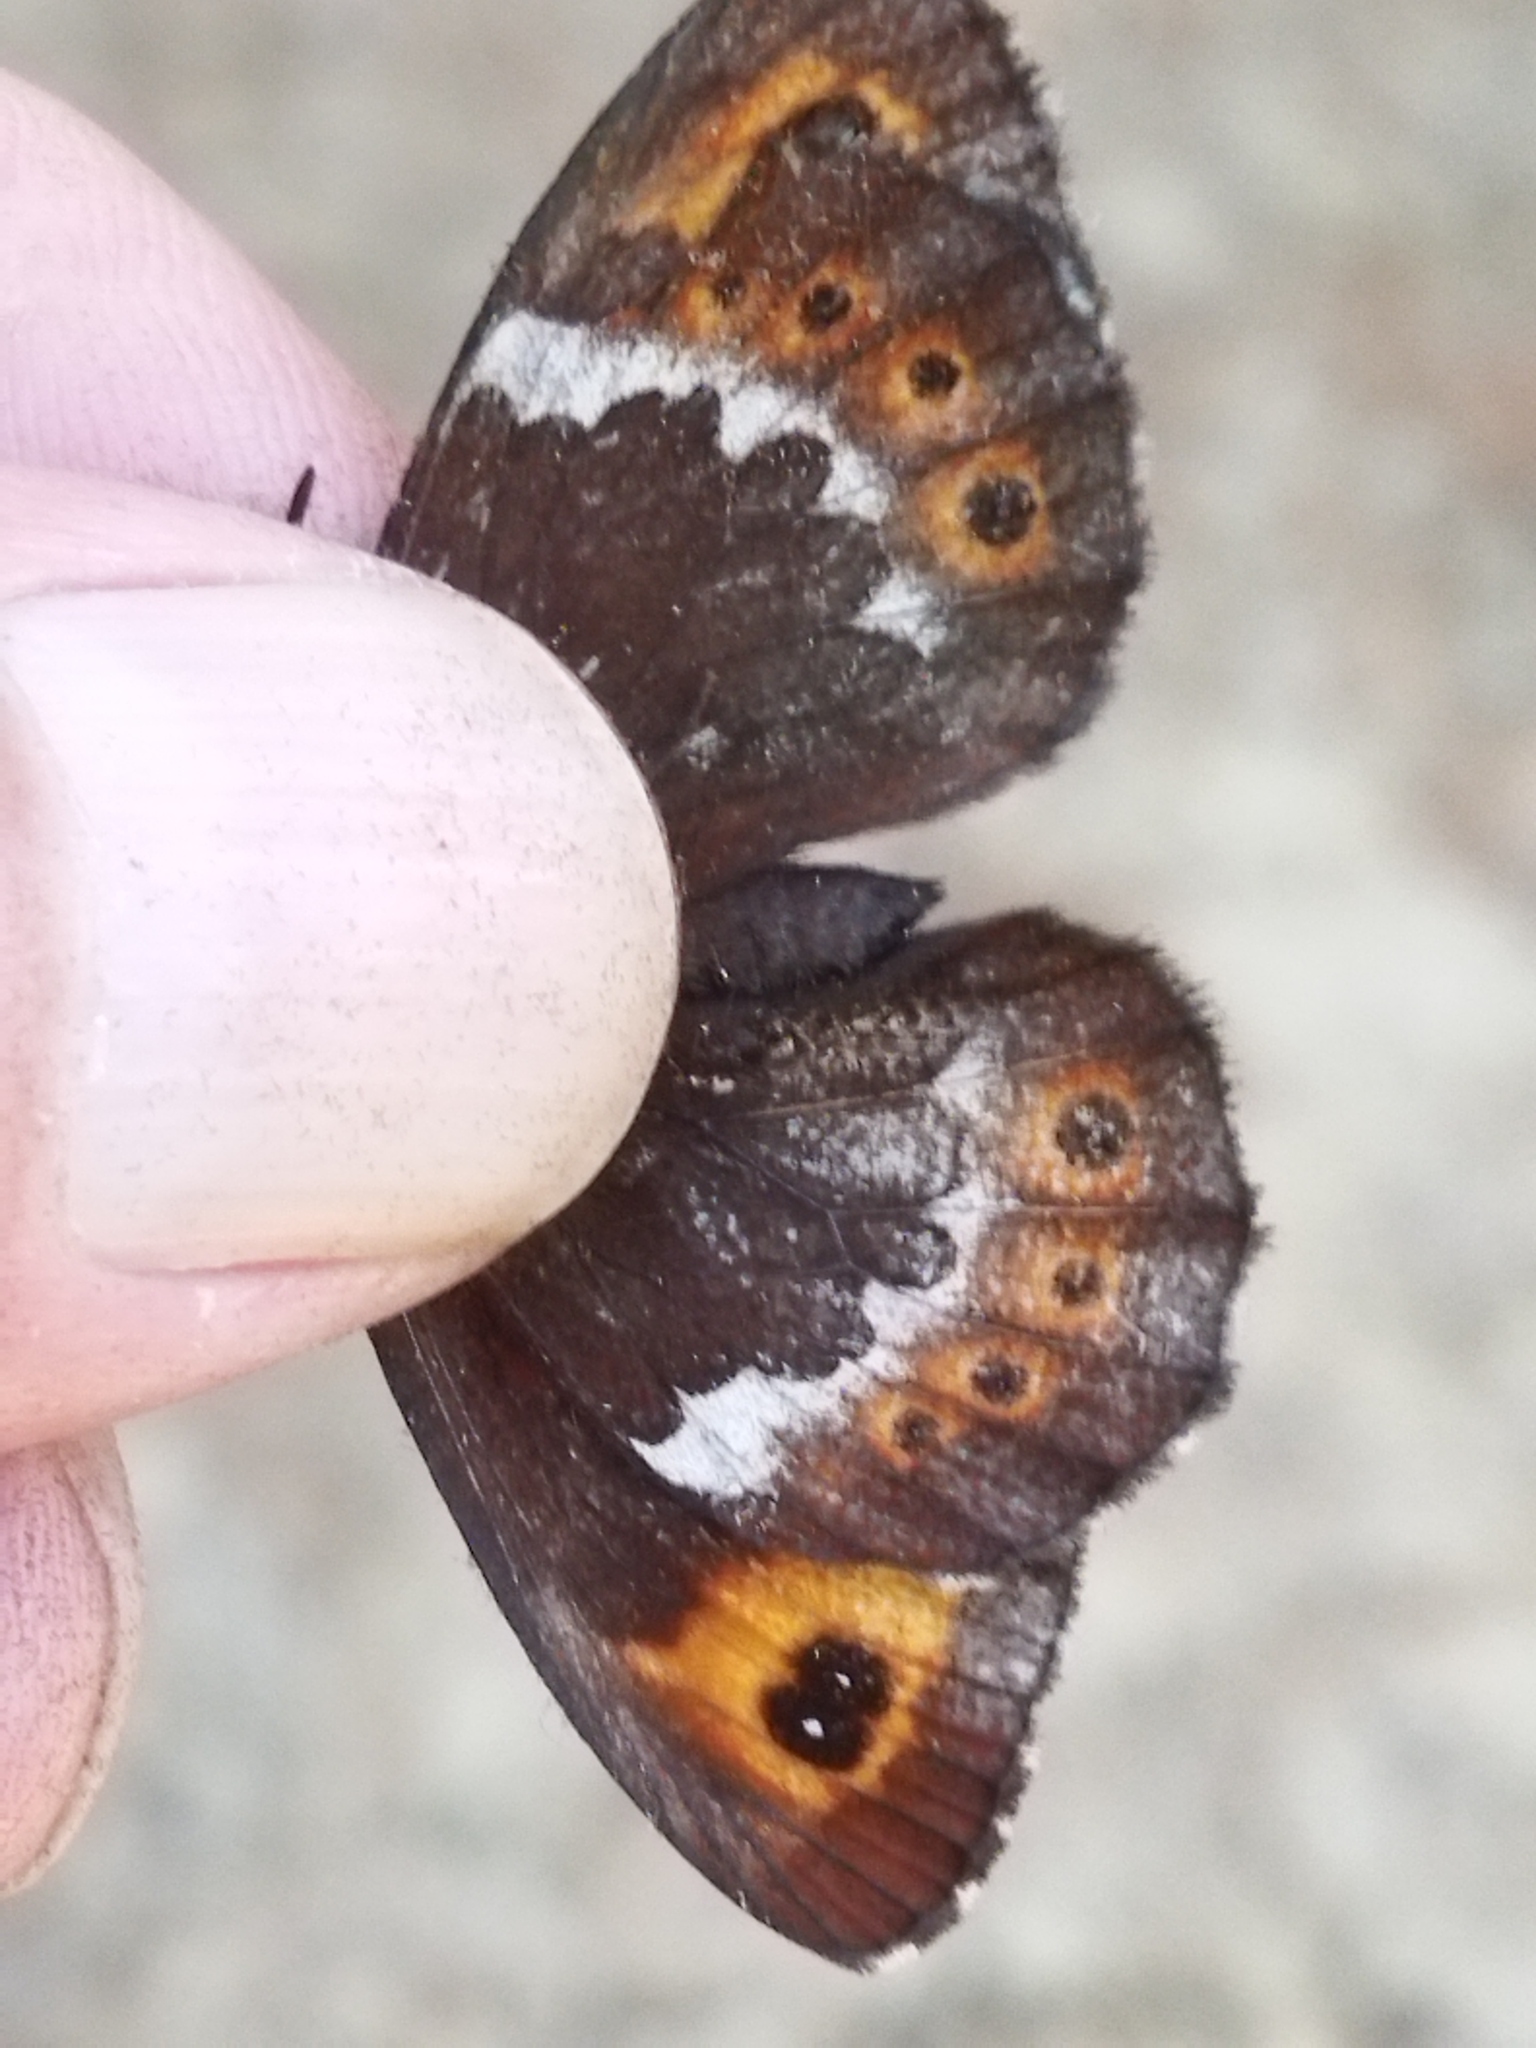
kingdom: Animalia
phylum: Arthropoda
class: Insecta
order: Lepidoptera
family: Nymphalidae
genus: Erebia
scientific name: Erebia ligea
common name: Arran brown
